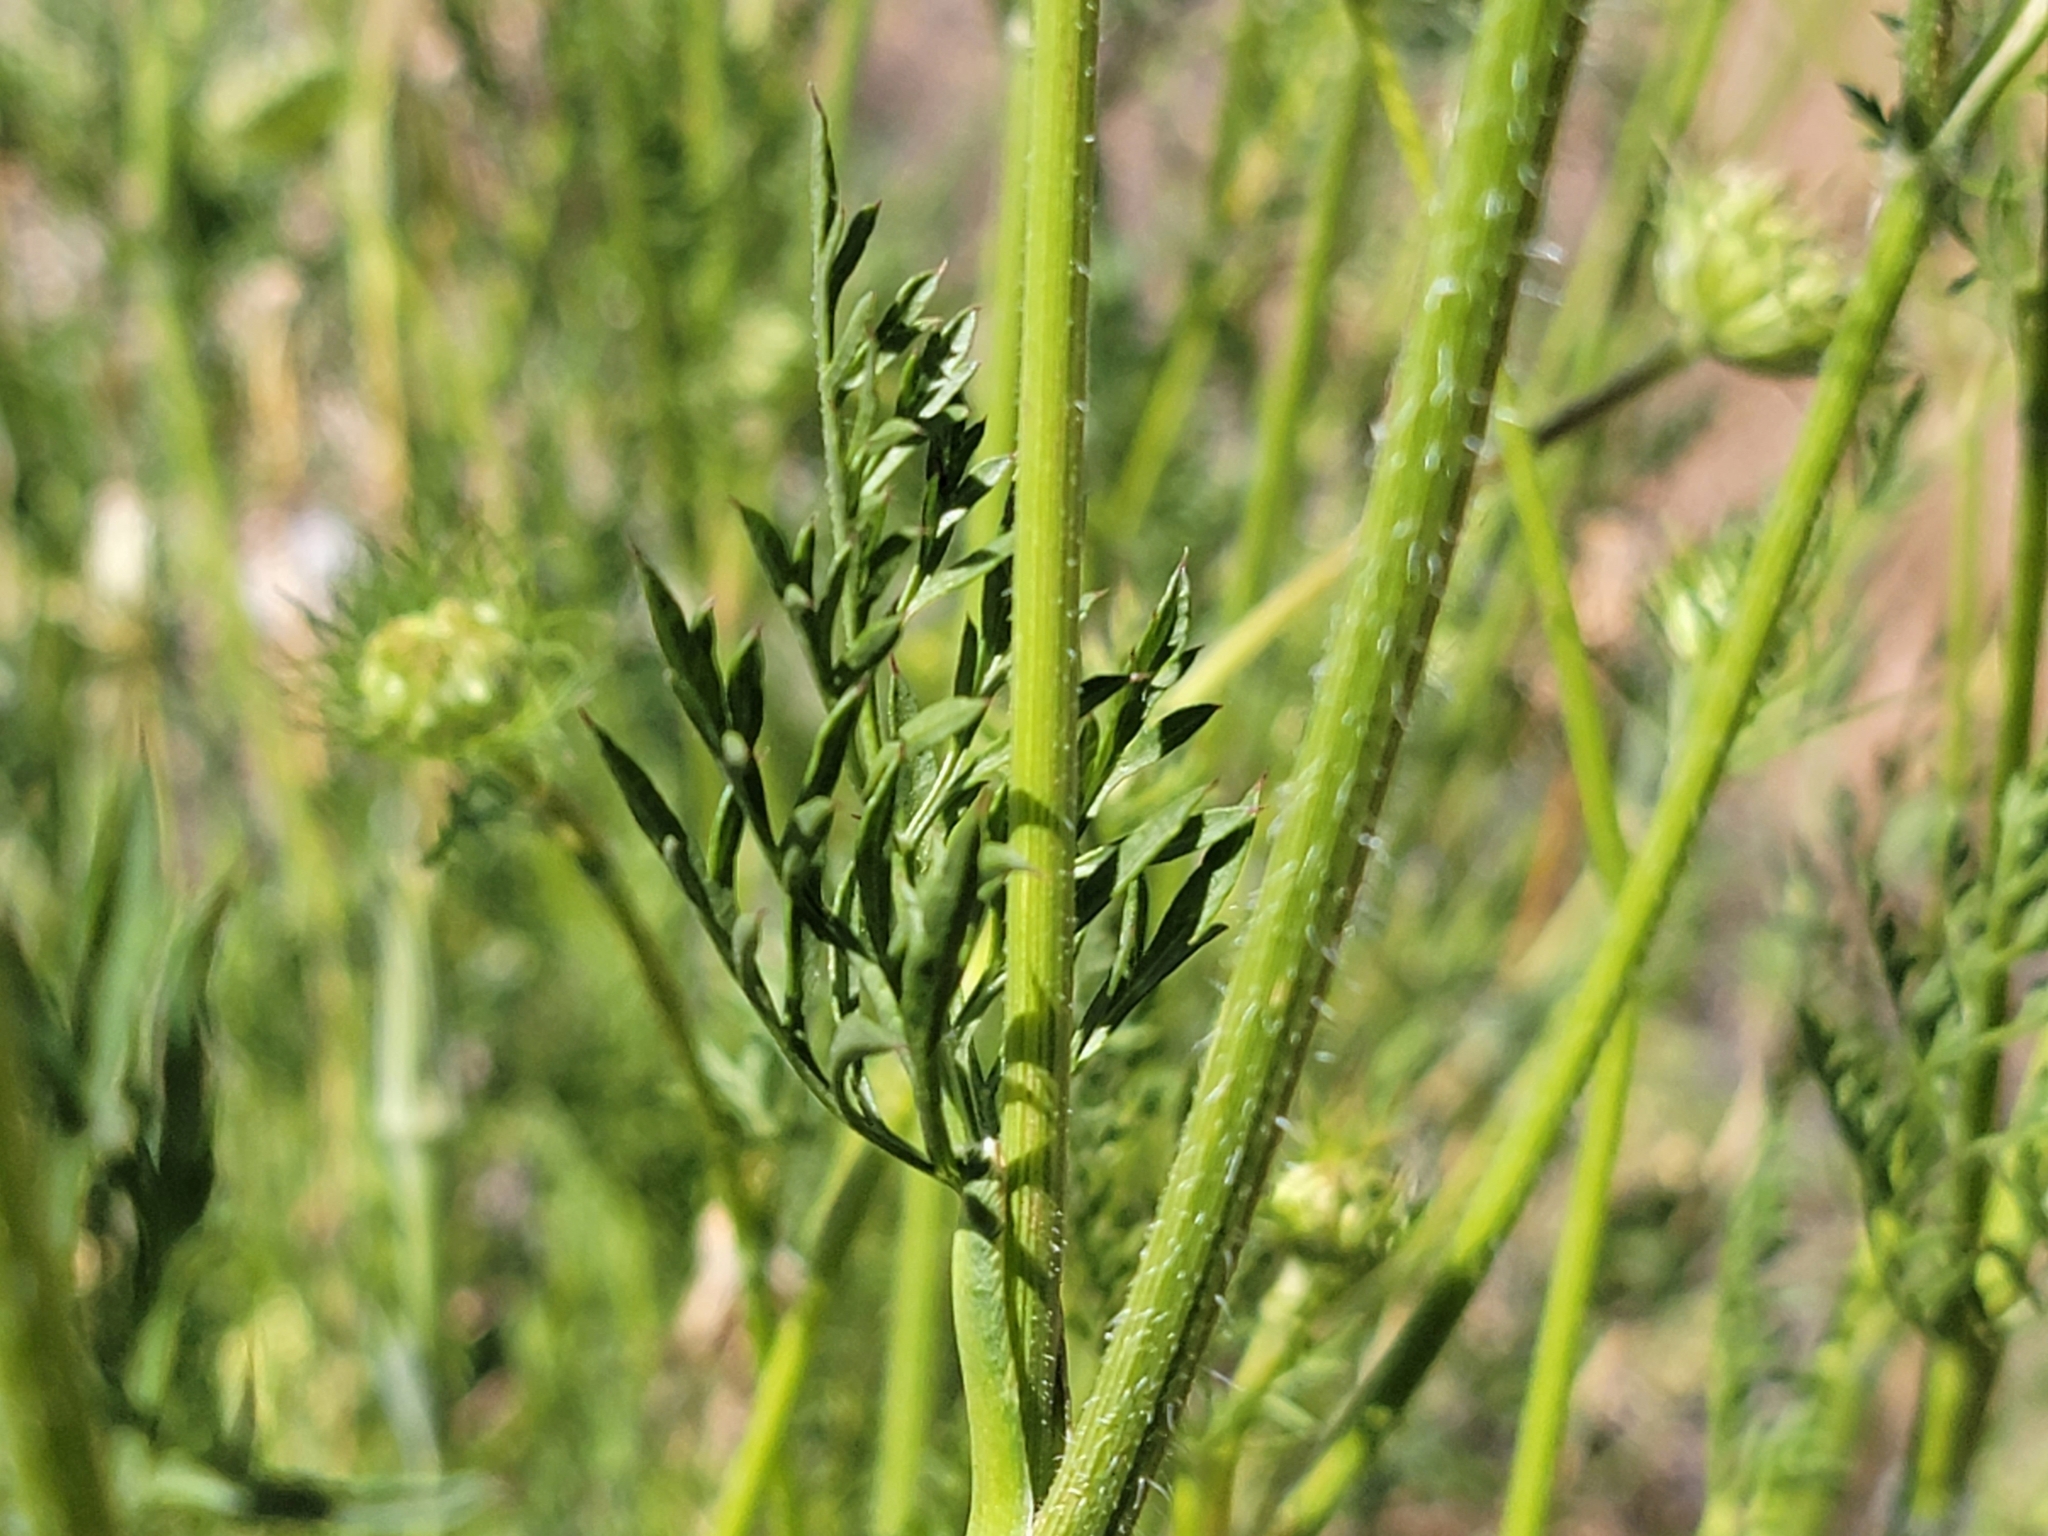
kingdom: Plantae
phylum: Tracheophyta
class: Magnoliopsida
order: Apiales
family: Apiaceae
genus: Daucus
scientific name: Daucus carota
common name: Wild carrot
